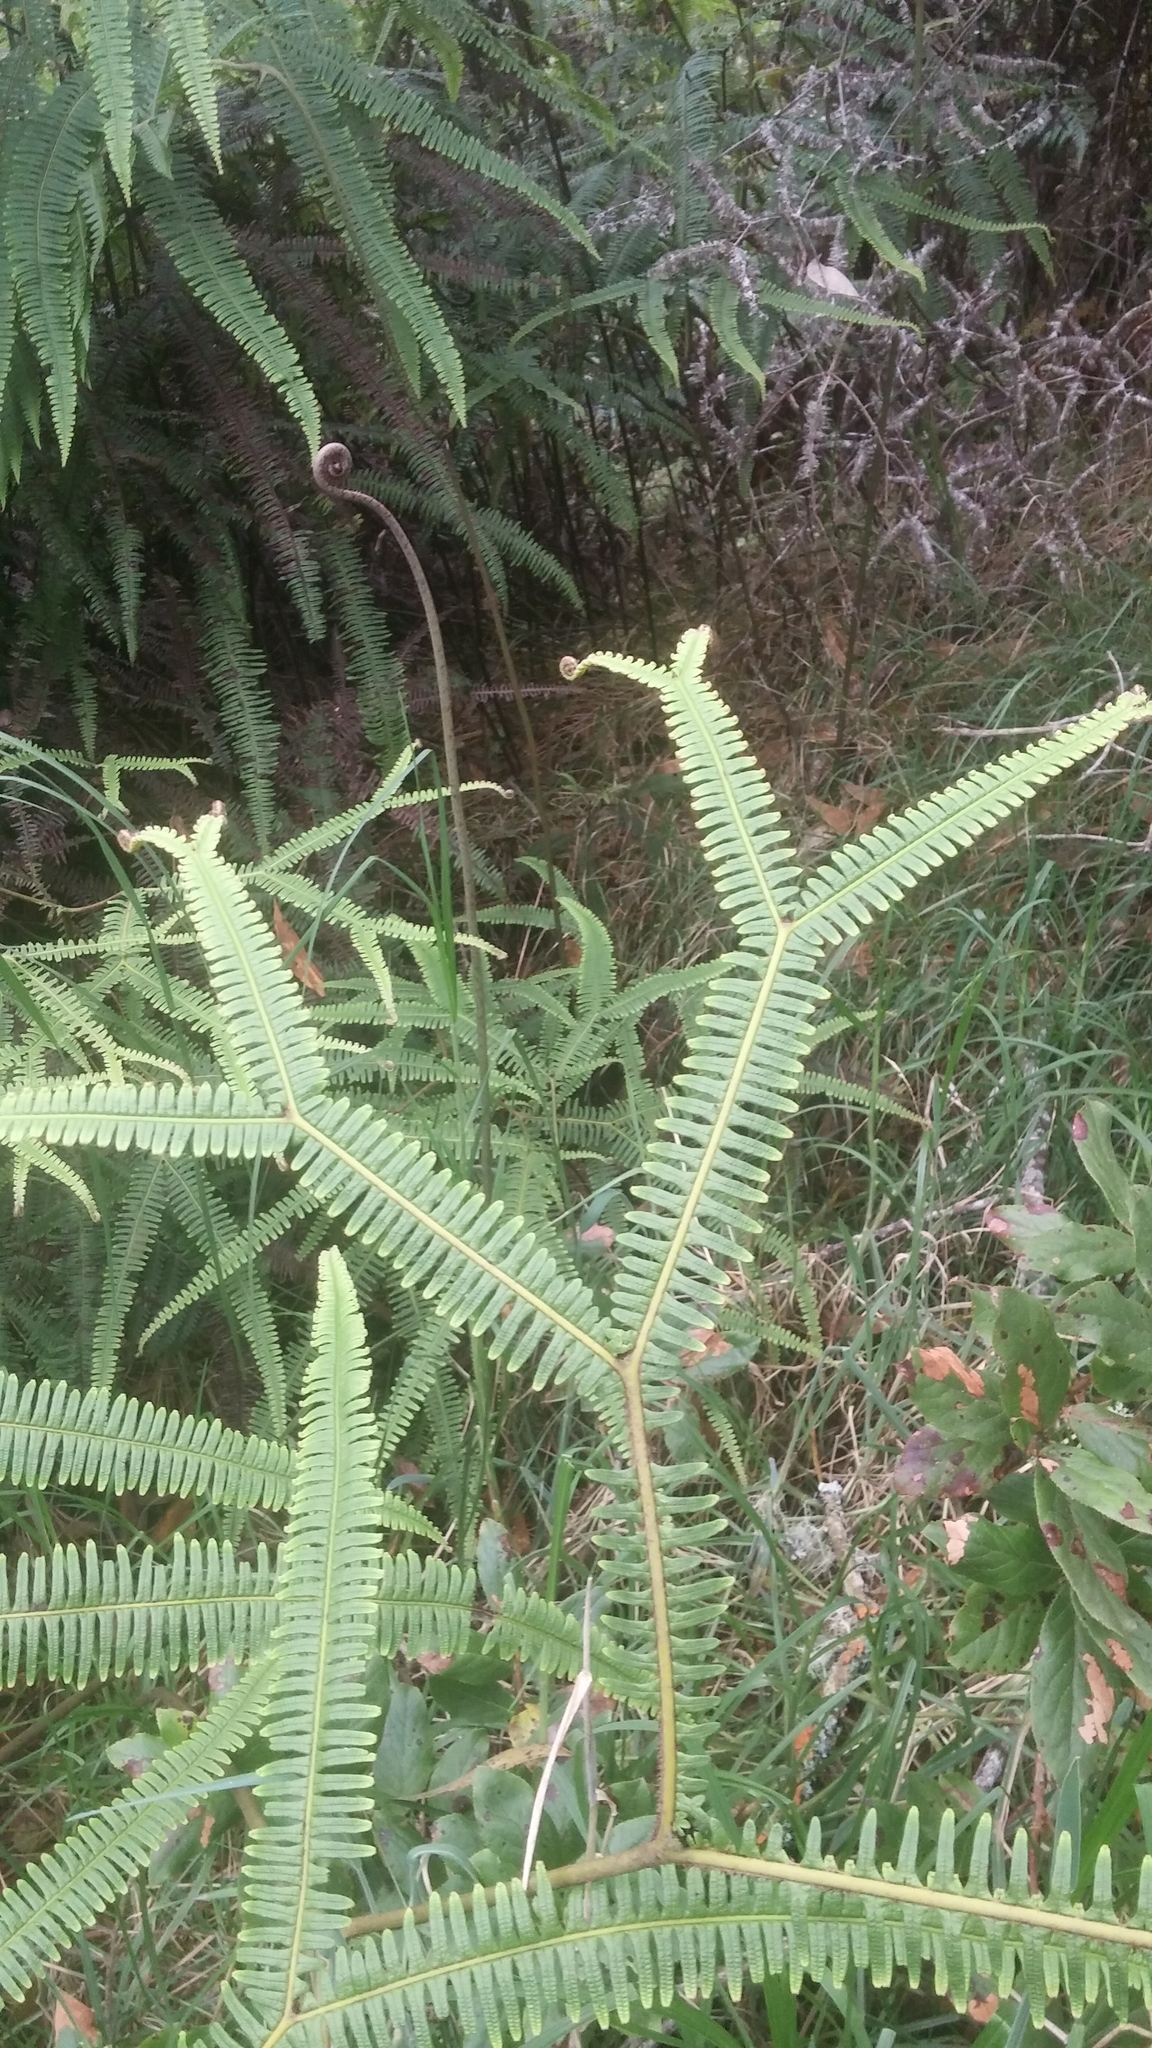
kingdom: Plantae
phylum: Tracheophyta
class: Polypodiopsida
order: Gleicheniales
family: Gleicheniaceae
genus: Sticherus
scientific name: Sticherus owhyhensis
